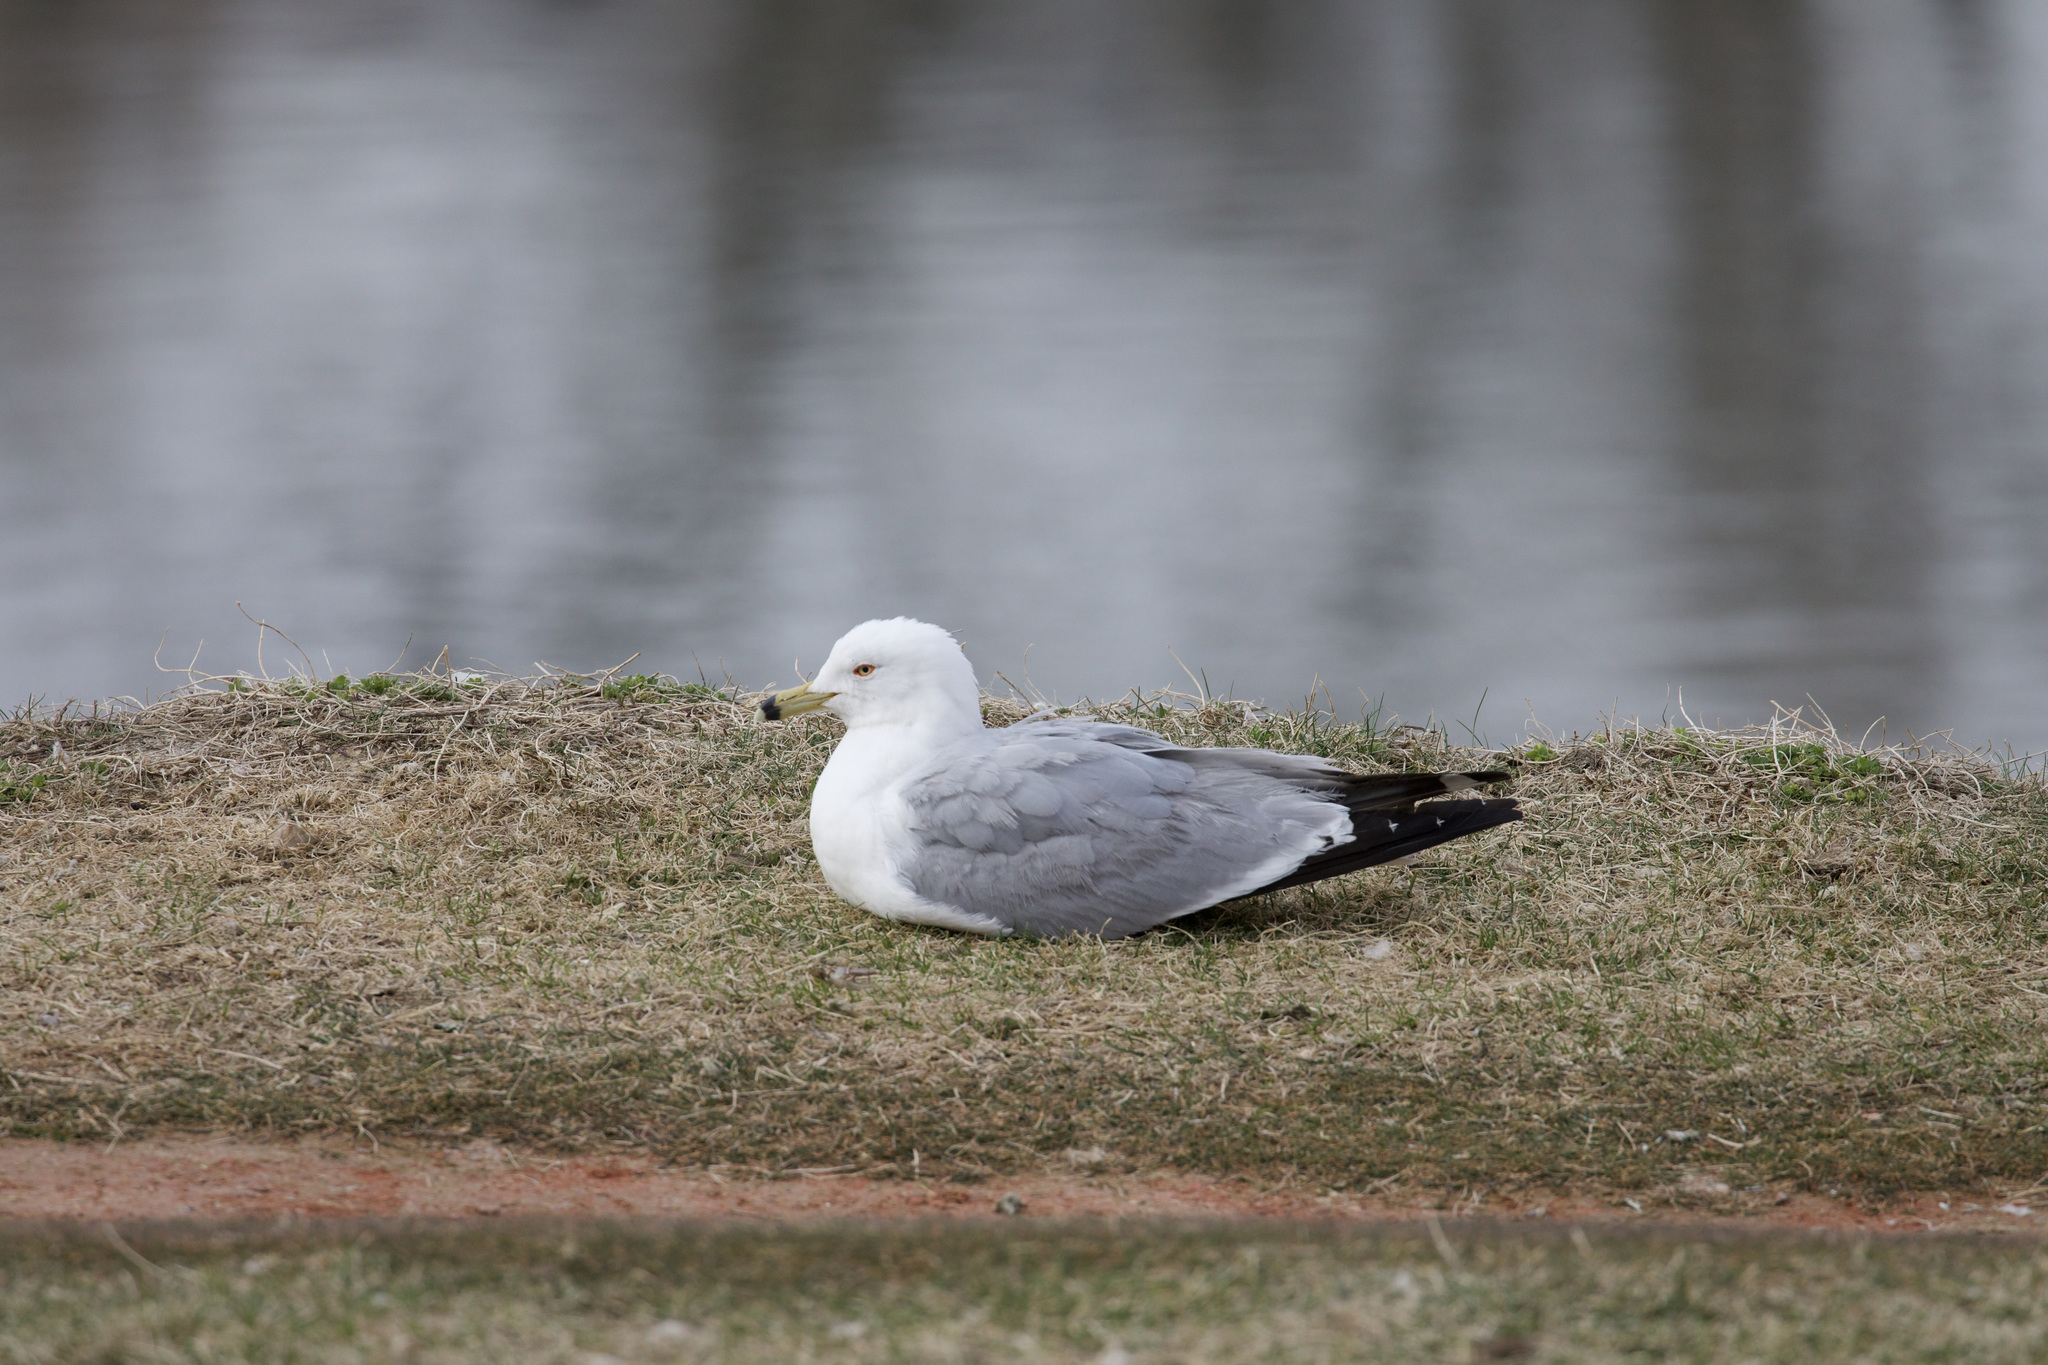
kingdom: Animalia
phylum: Chordata
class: Aves
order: Charadriiformes
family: Laridae
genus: Larus
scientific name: Larus delawarensis
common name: Ring-billed gull
